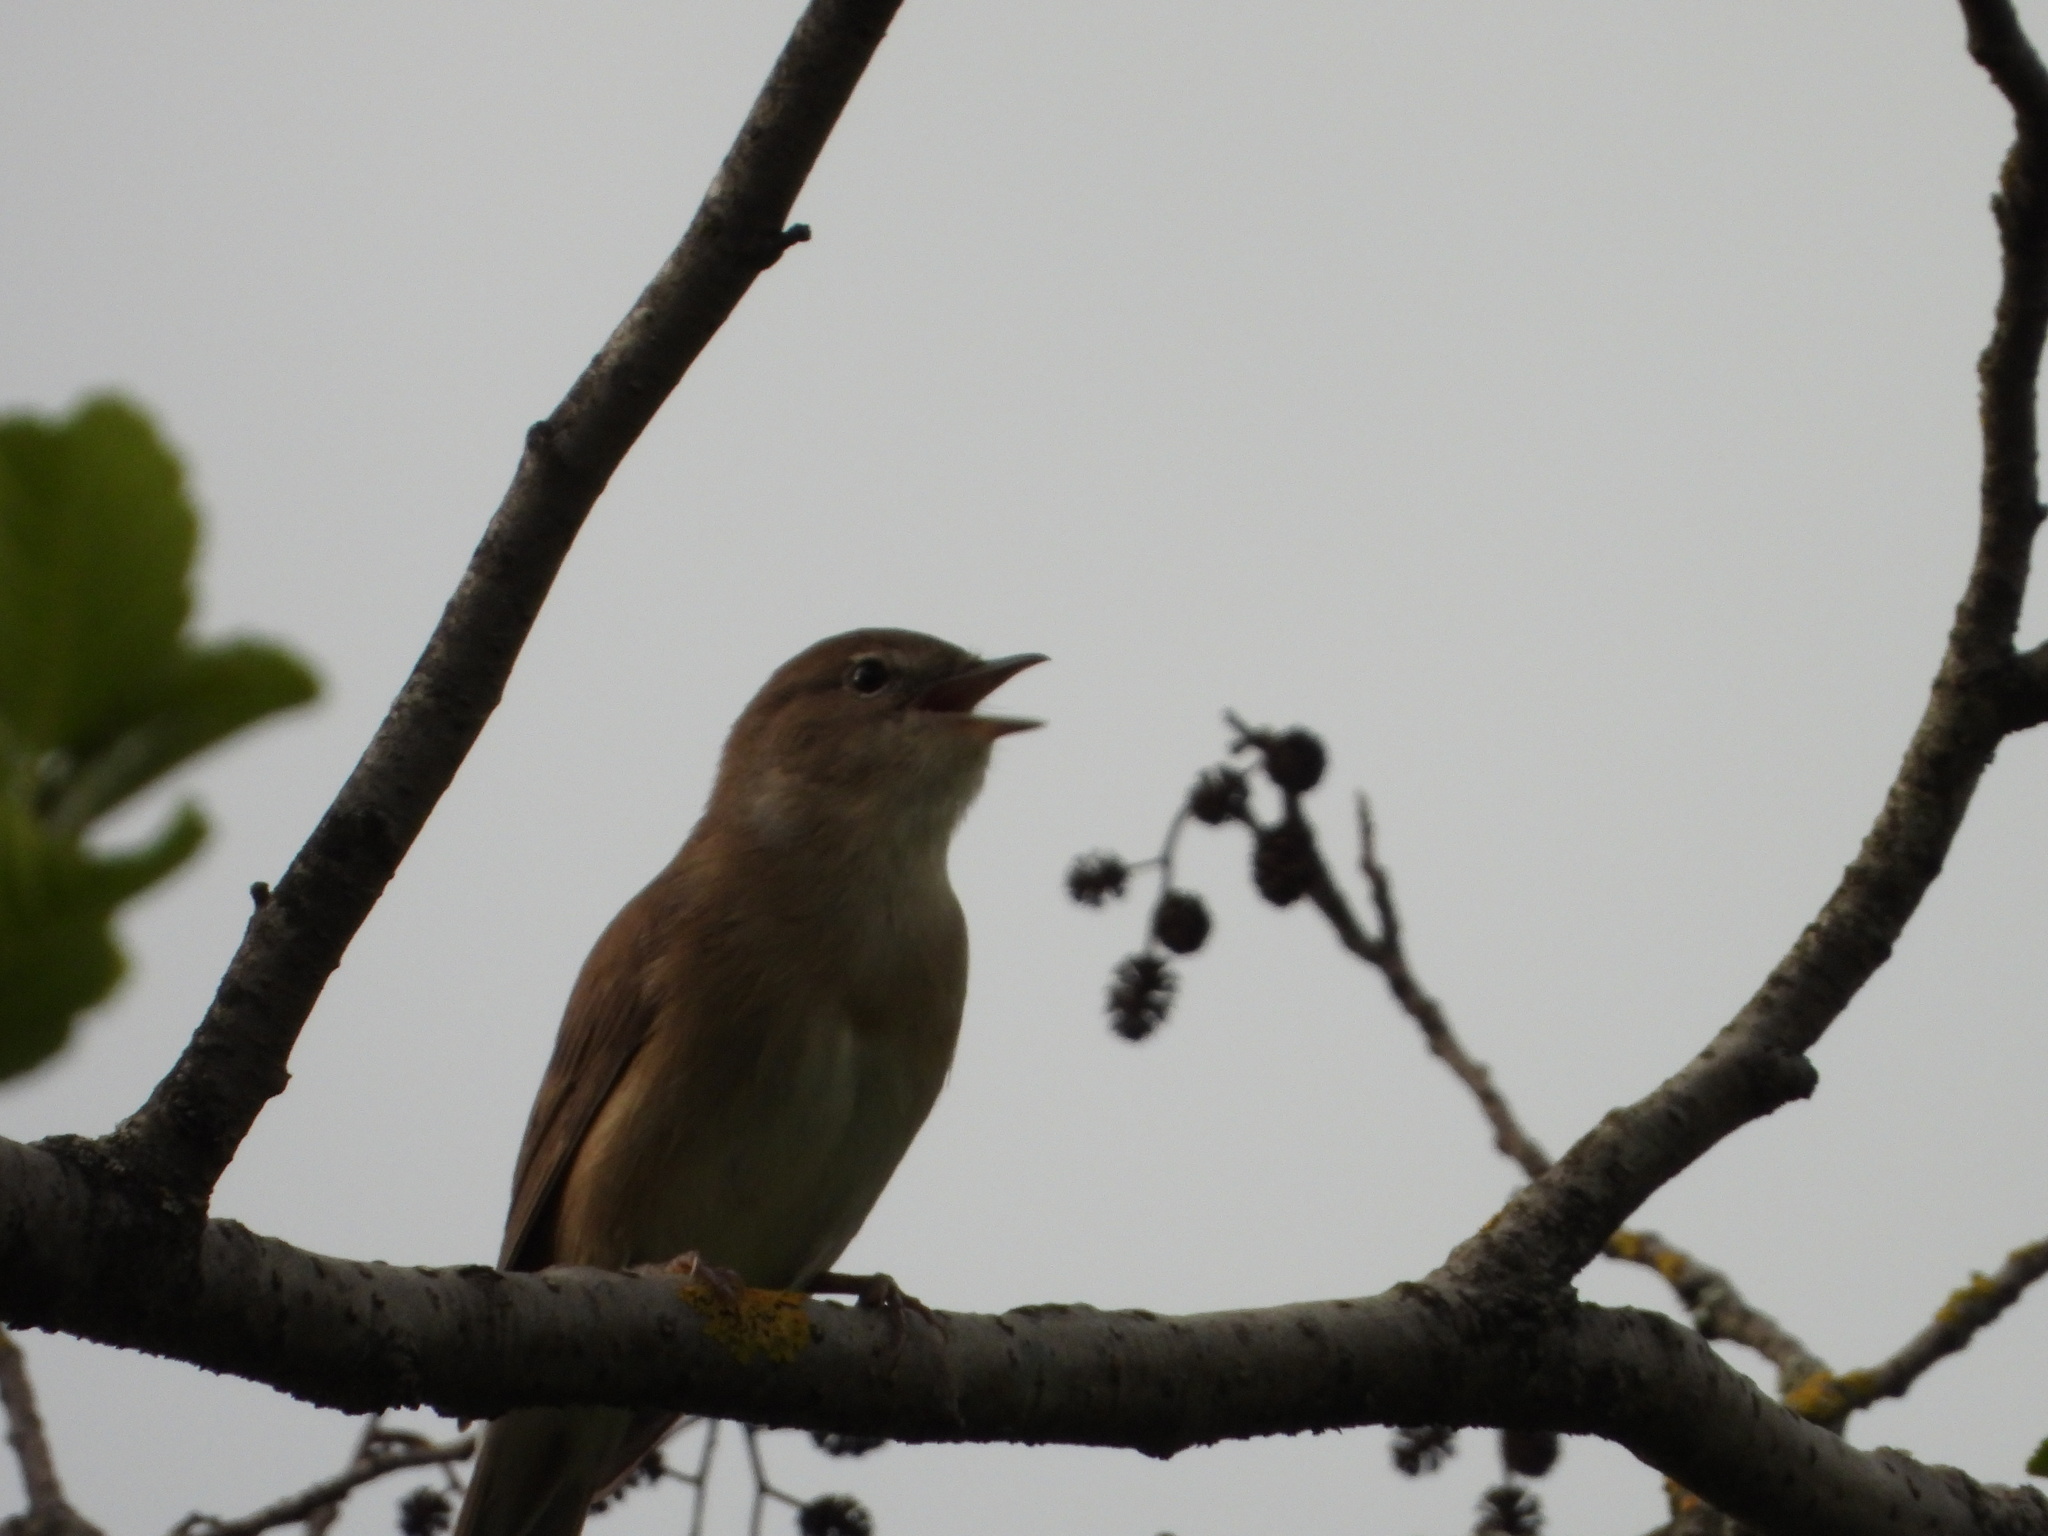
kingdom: Animalia
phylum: Chordata
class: Aves
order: Passeriformes
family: Sylviidae
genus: Sylvia
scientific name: Sylvia borin
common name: Garden warbler
